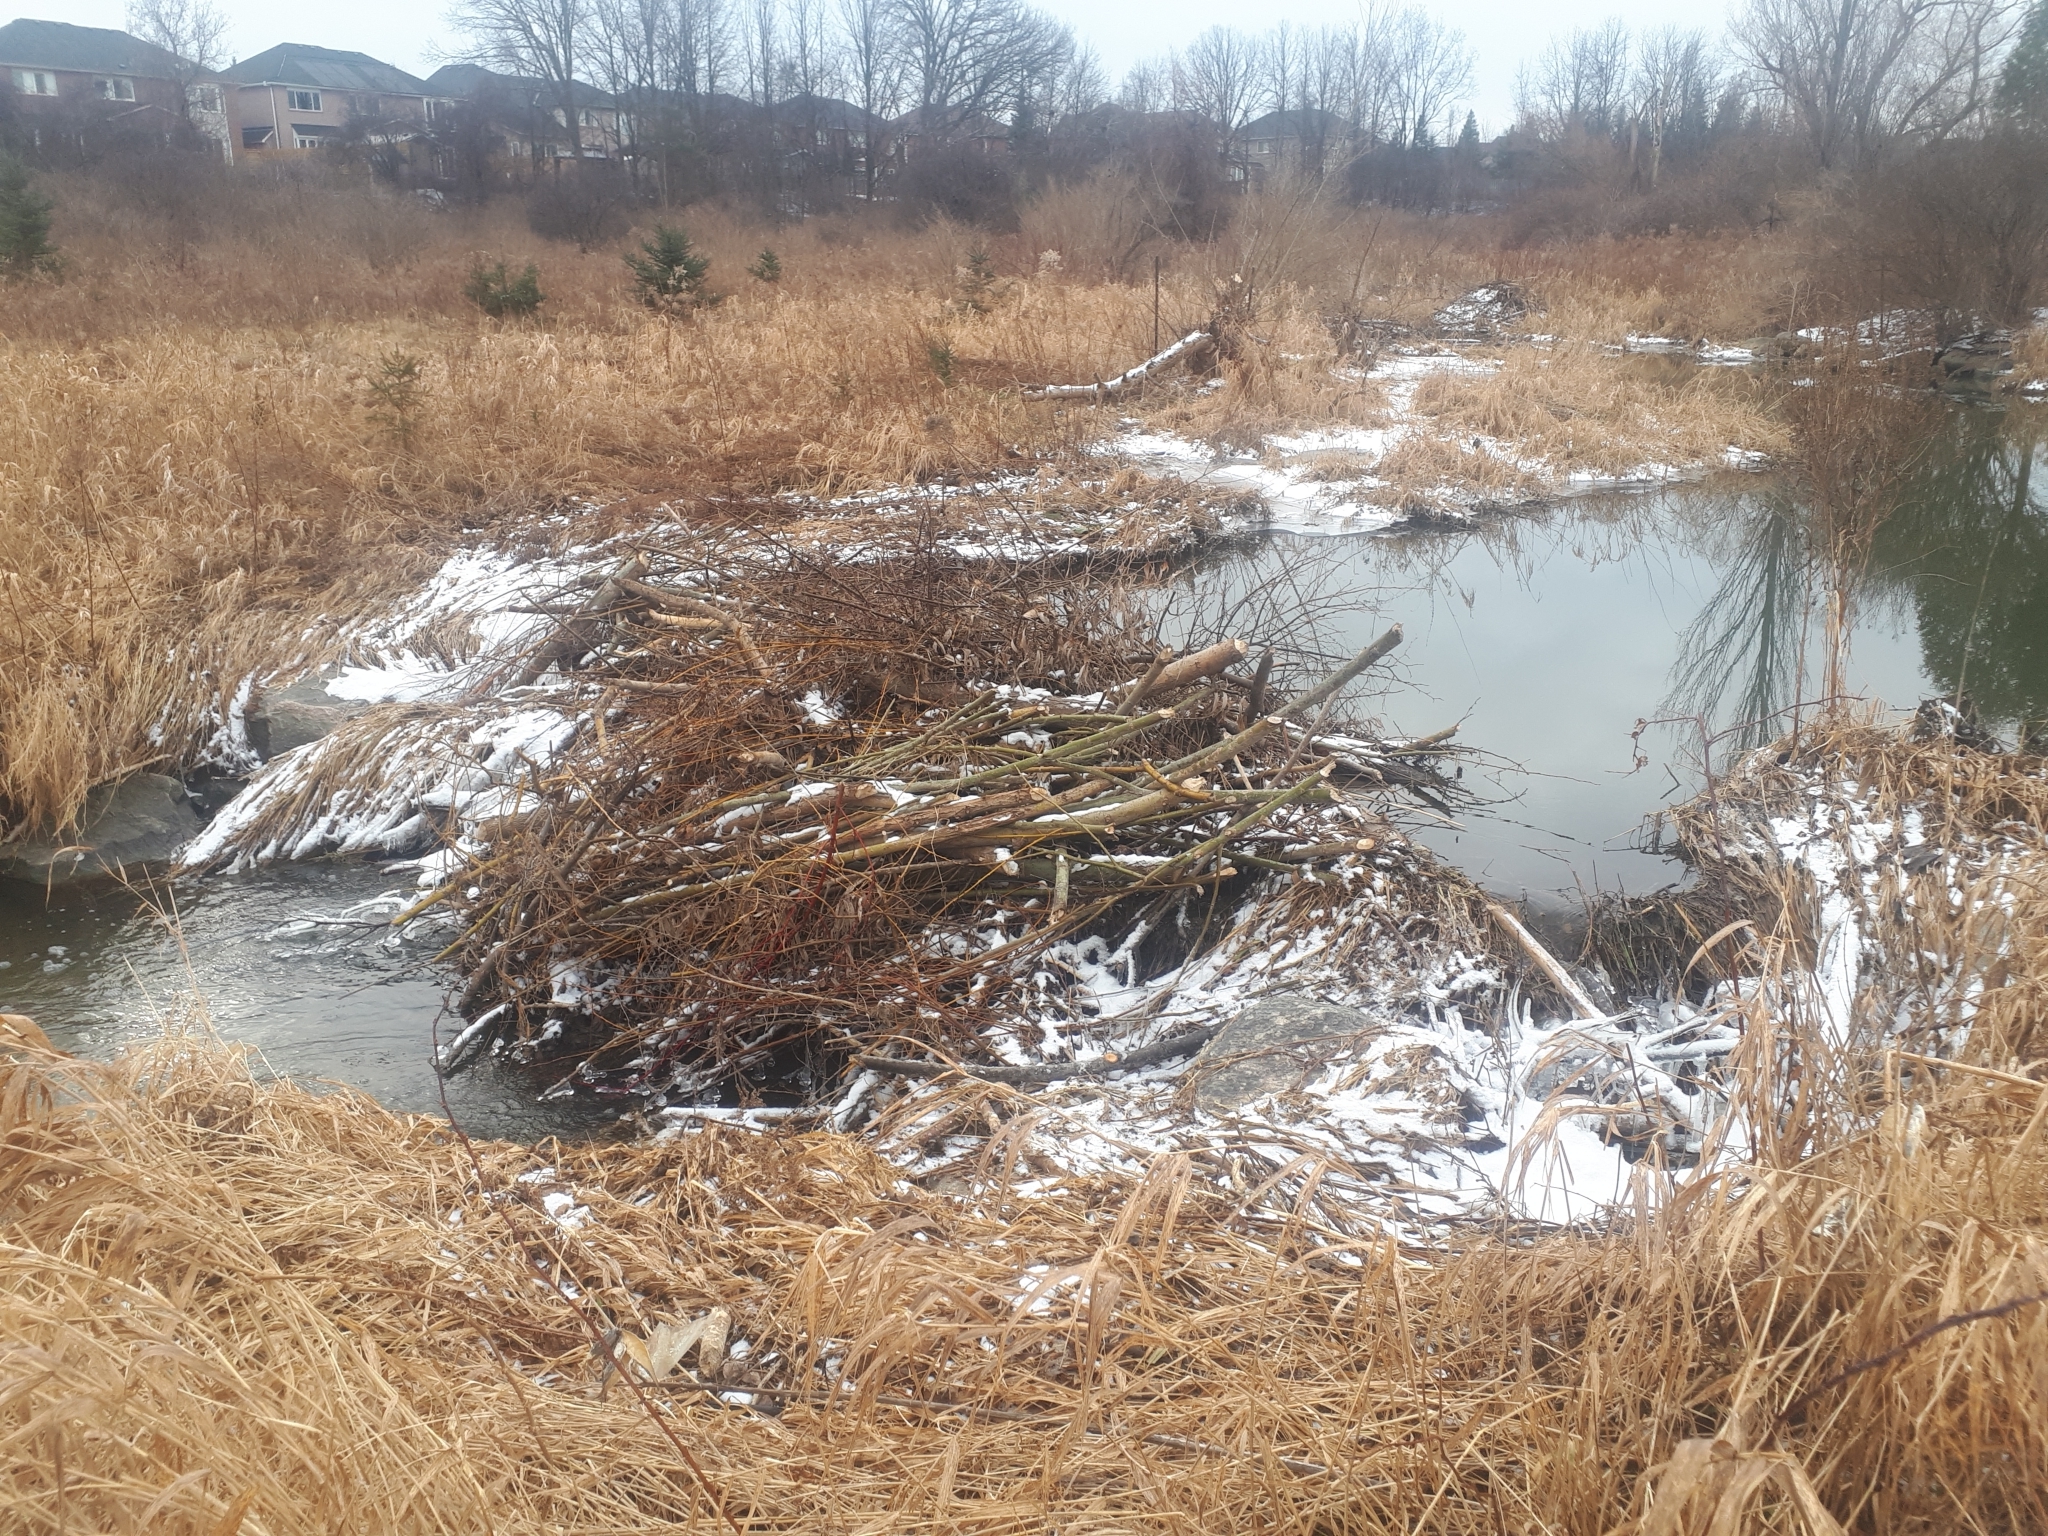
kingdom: Animalia
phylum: Chordata
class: Mammalia
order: Rodentia
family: Castoridae
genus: Castor
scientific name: Castor canadensis
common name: American beaver
